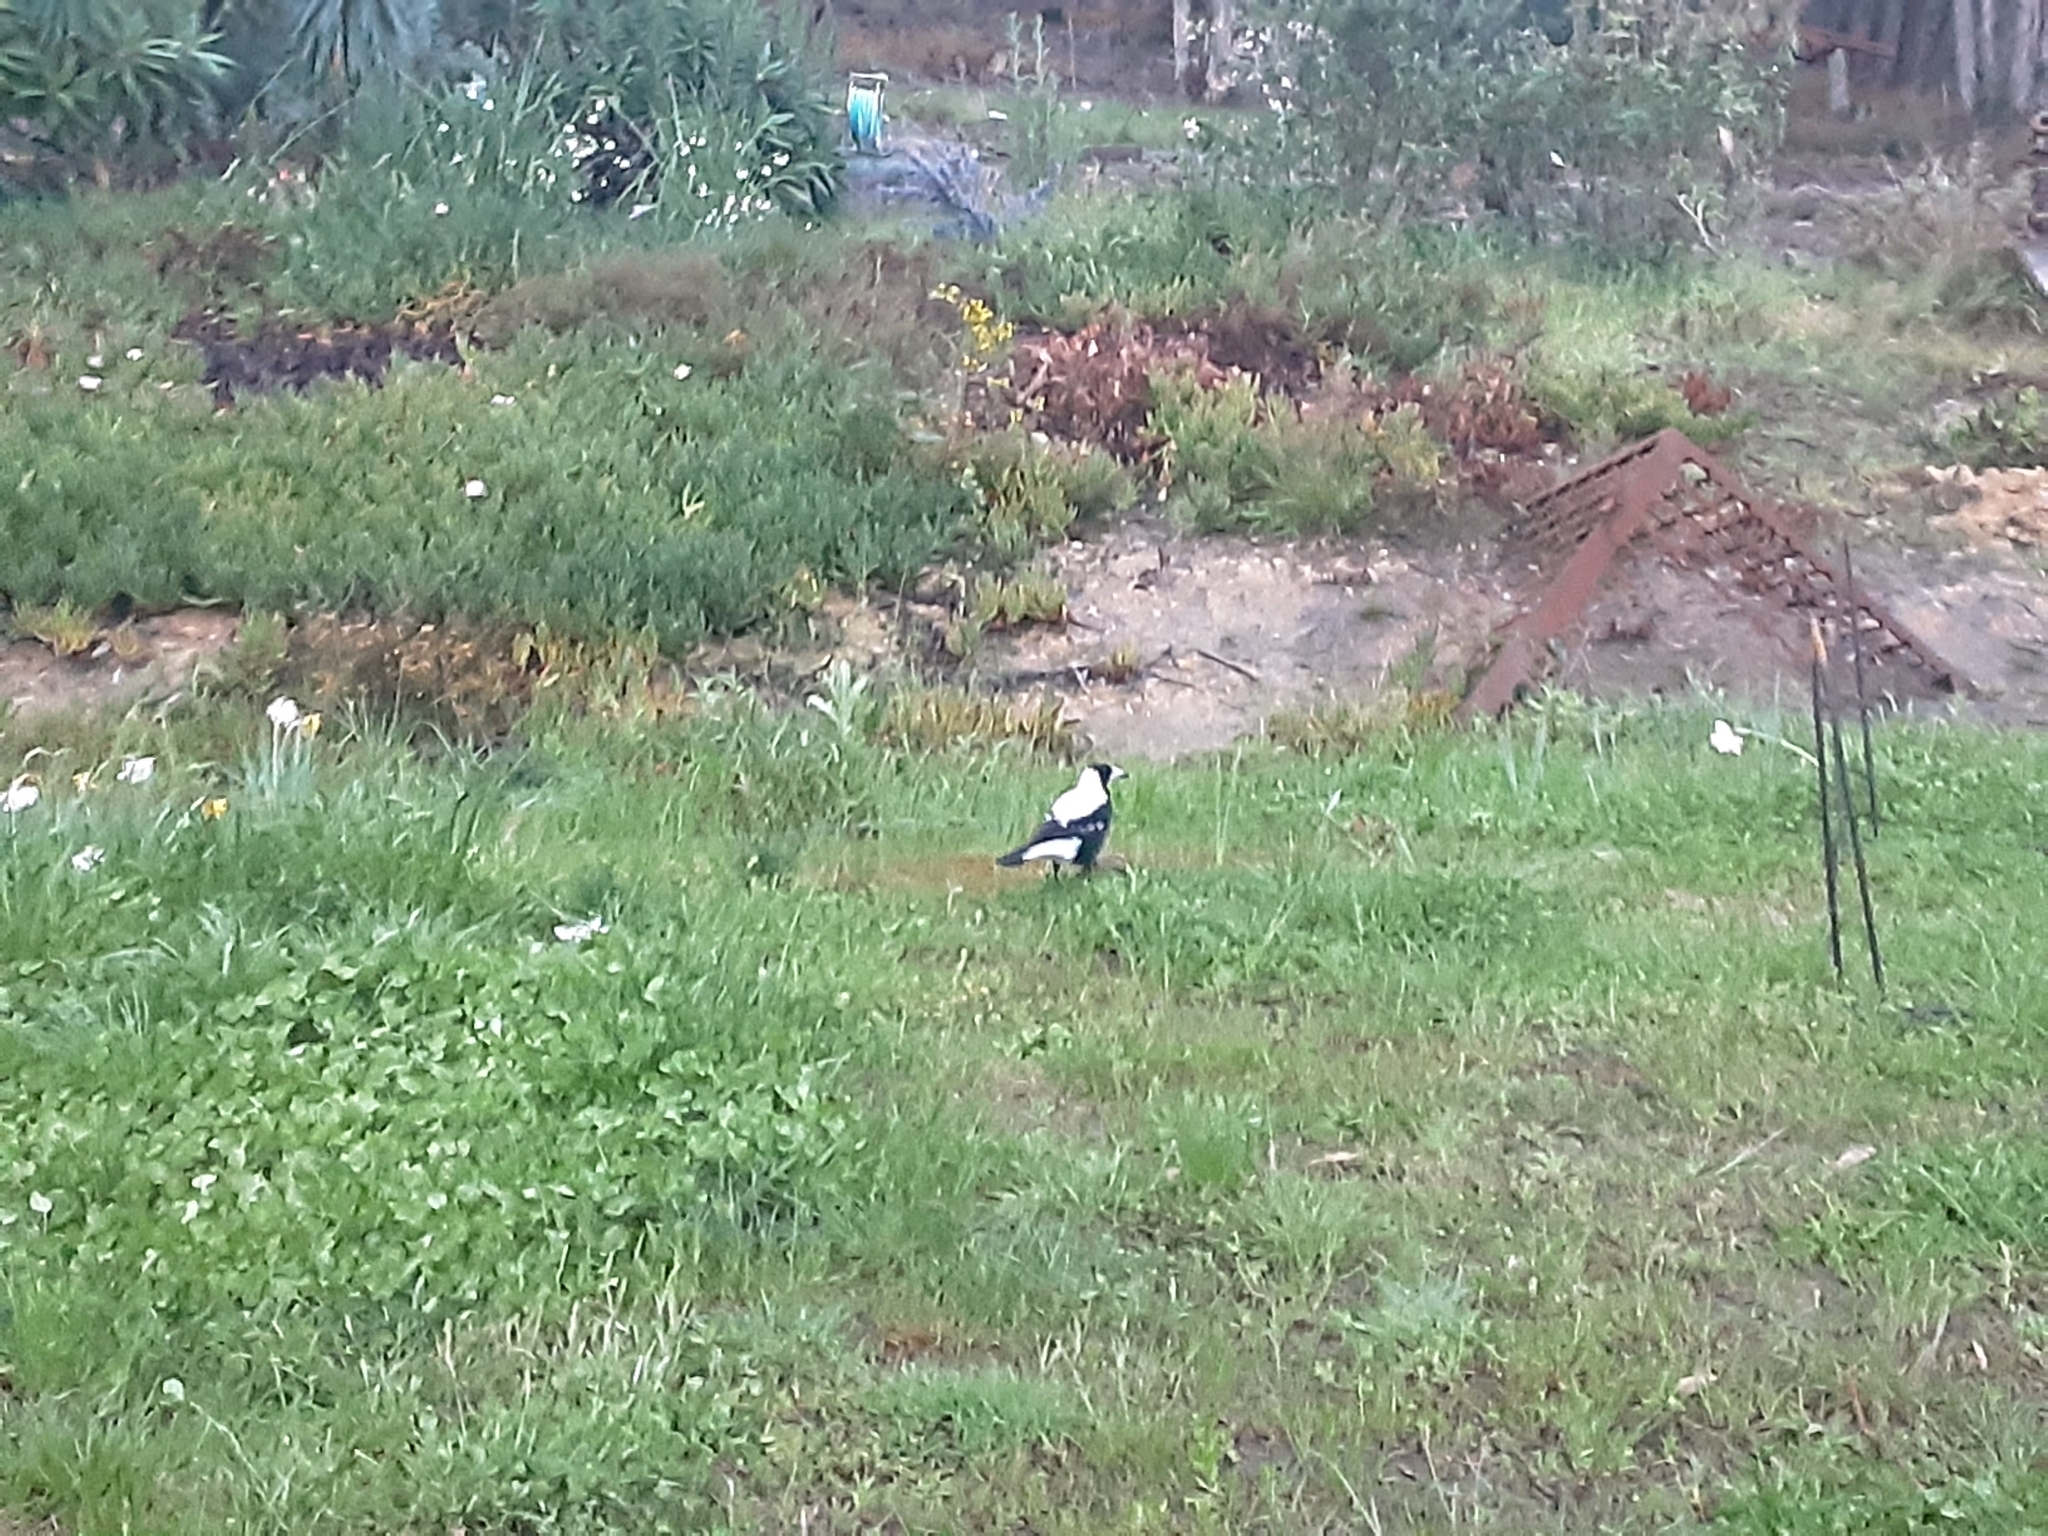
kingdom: Animalia
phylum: Chordata
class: Aves
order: Passeriformes
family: Cracticidae
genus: Gymnorhina
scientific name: Gymnorhina tibicen
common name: Australian magpie
